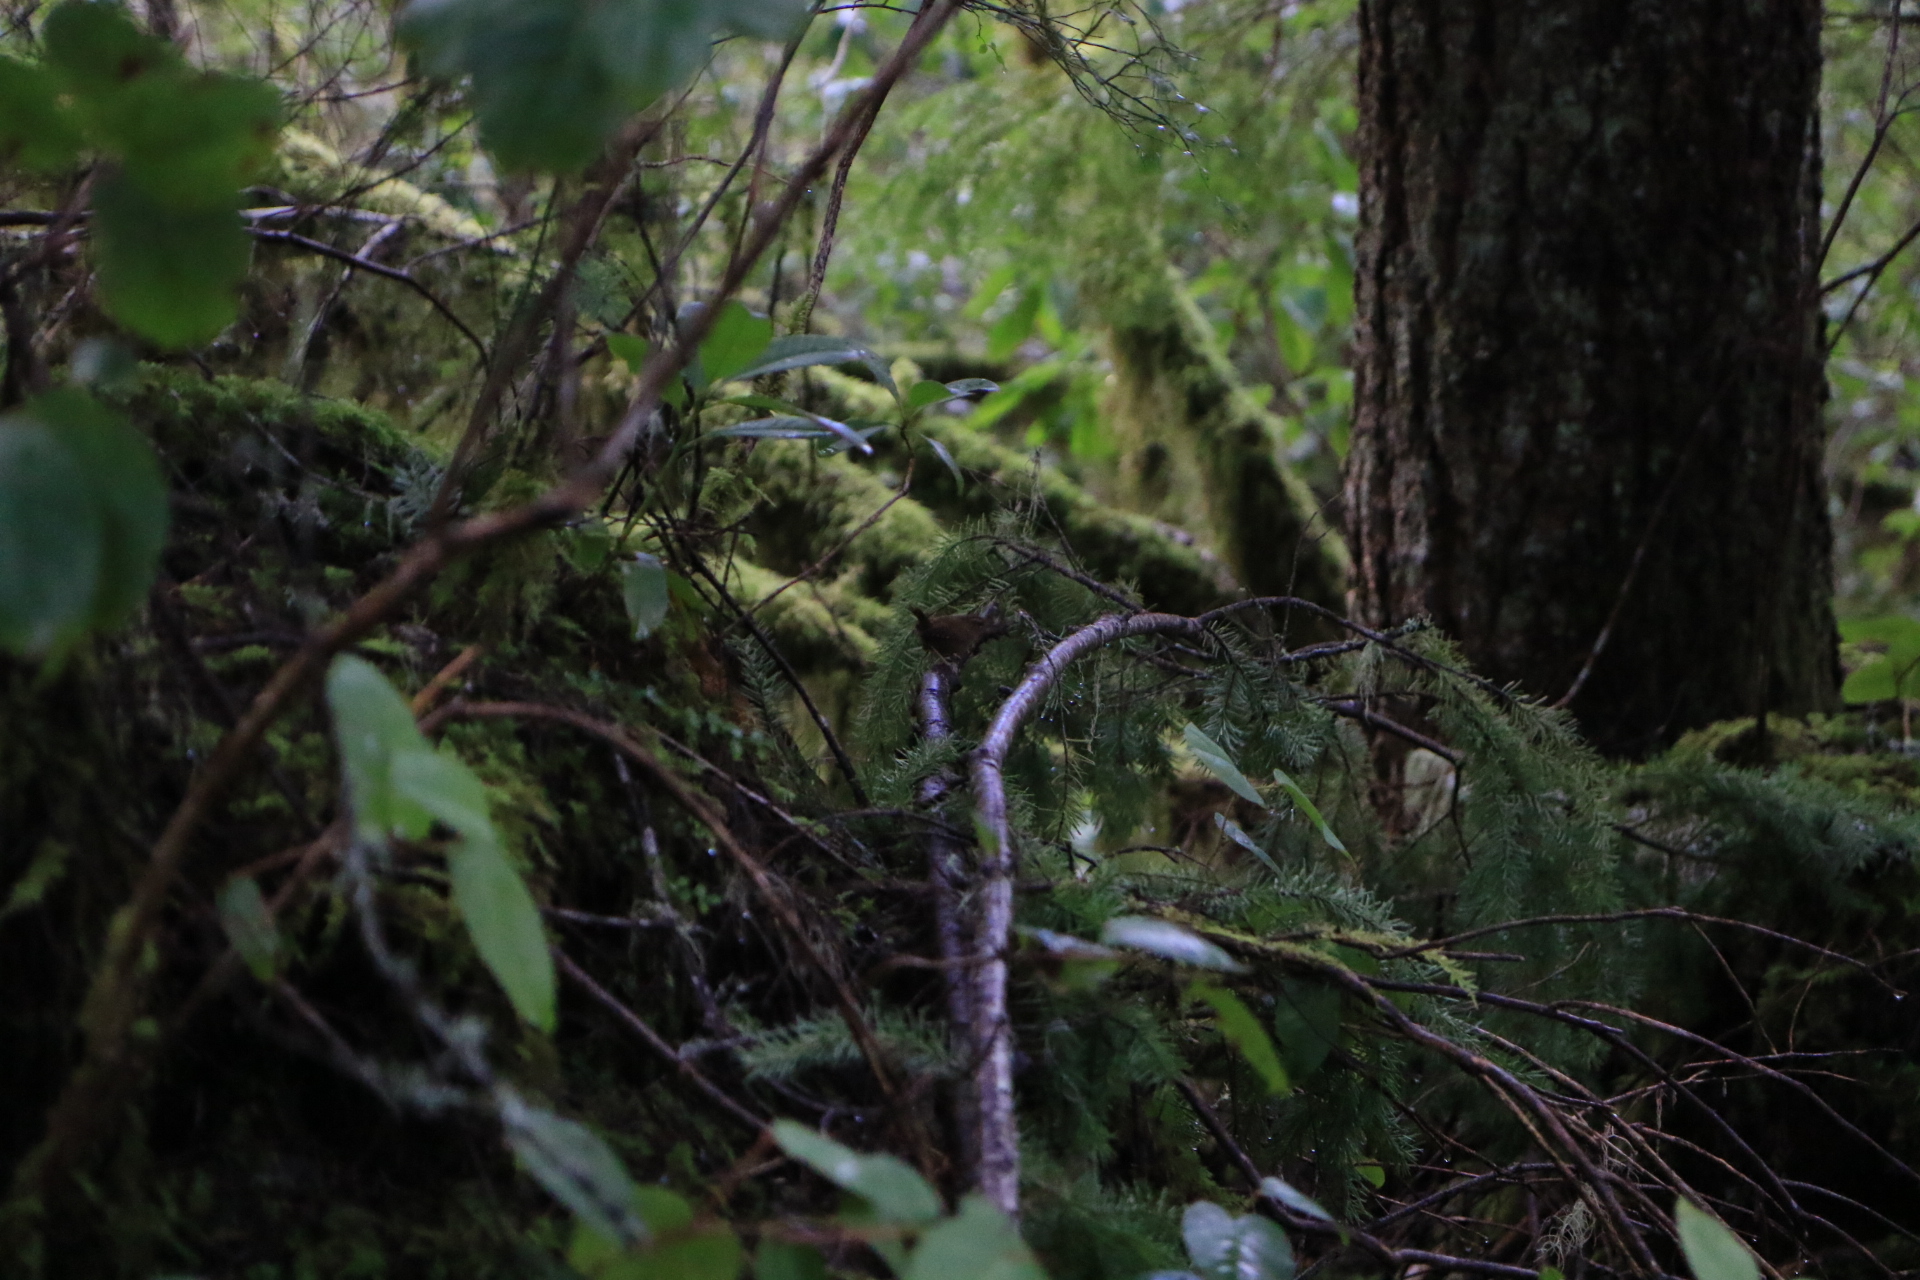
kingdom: Animalia
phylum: Chordata
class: Aves
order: Passeriformes
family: Troglodytidae
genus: Troglodytes
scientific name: Troglodytes pacificus
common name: Pacific wren
